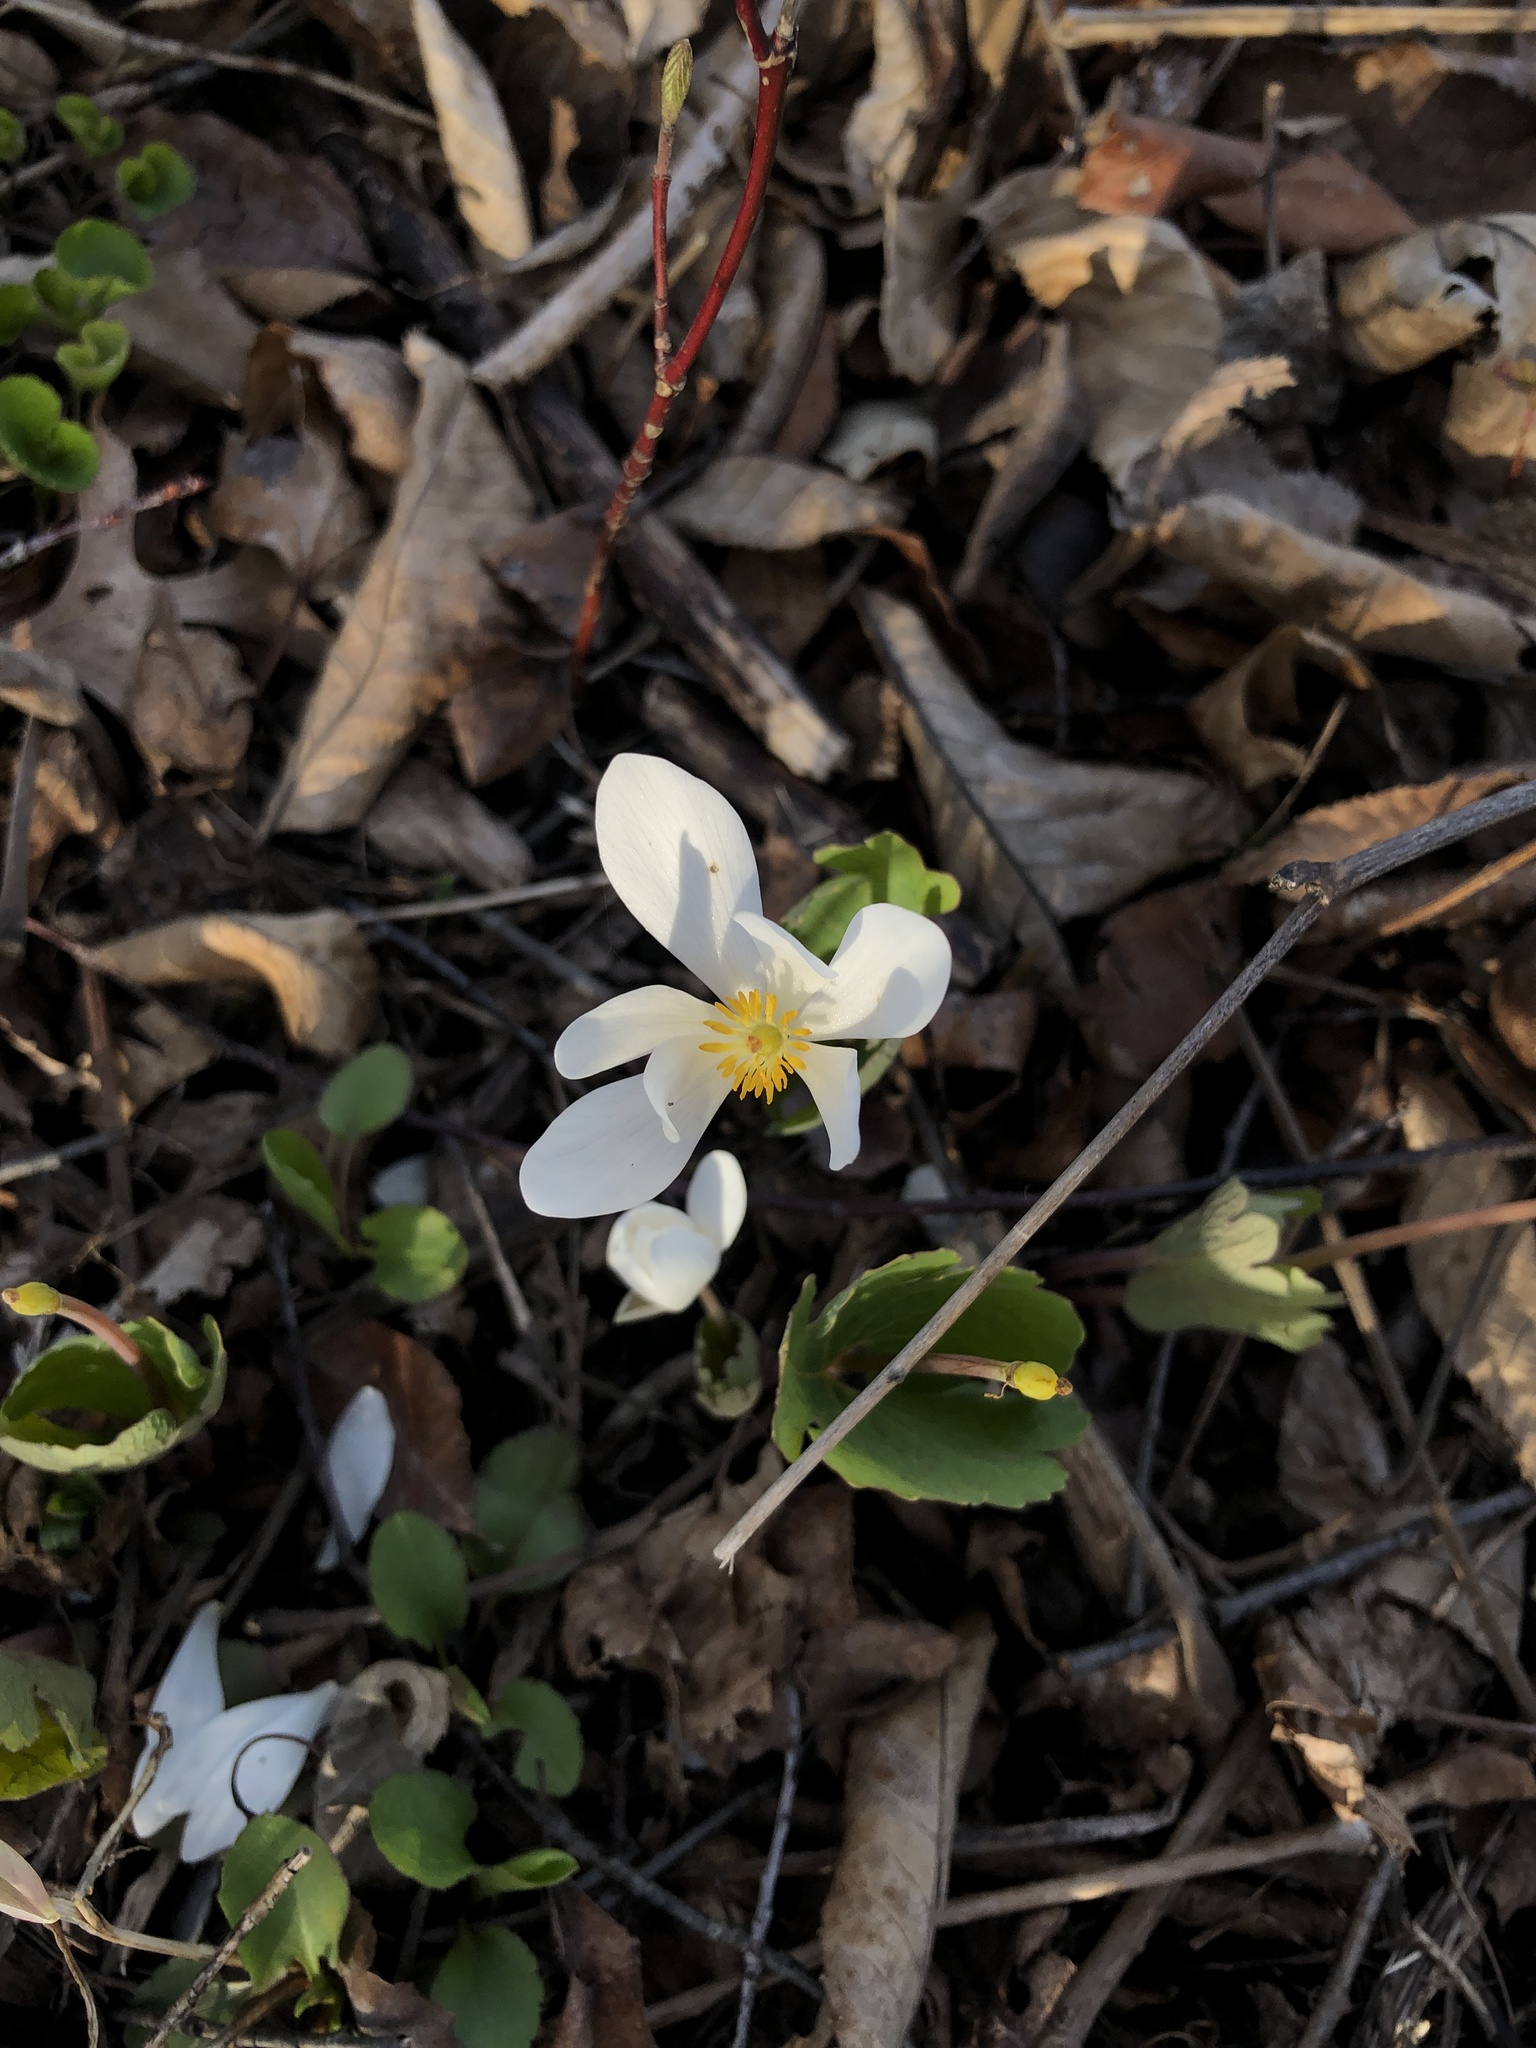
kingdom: Plantae
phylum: Tracheophyta
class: Magnoliopsida
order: Ranunculales
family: Papaveraceae
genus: Sanguinaria
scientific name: Sanguinaria canadensis
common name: Bloodroot
